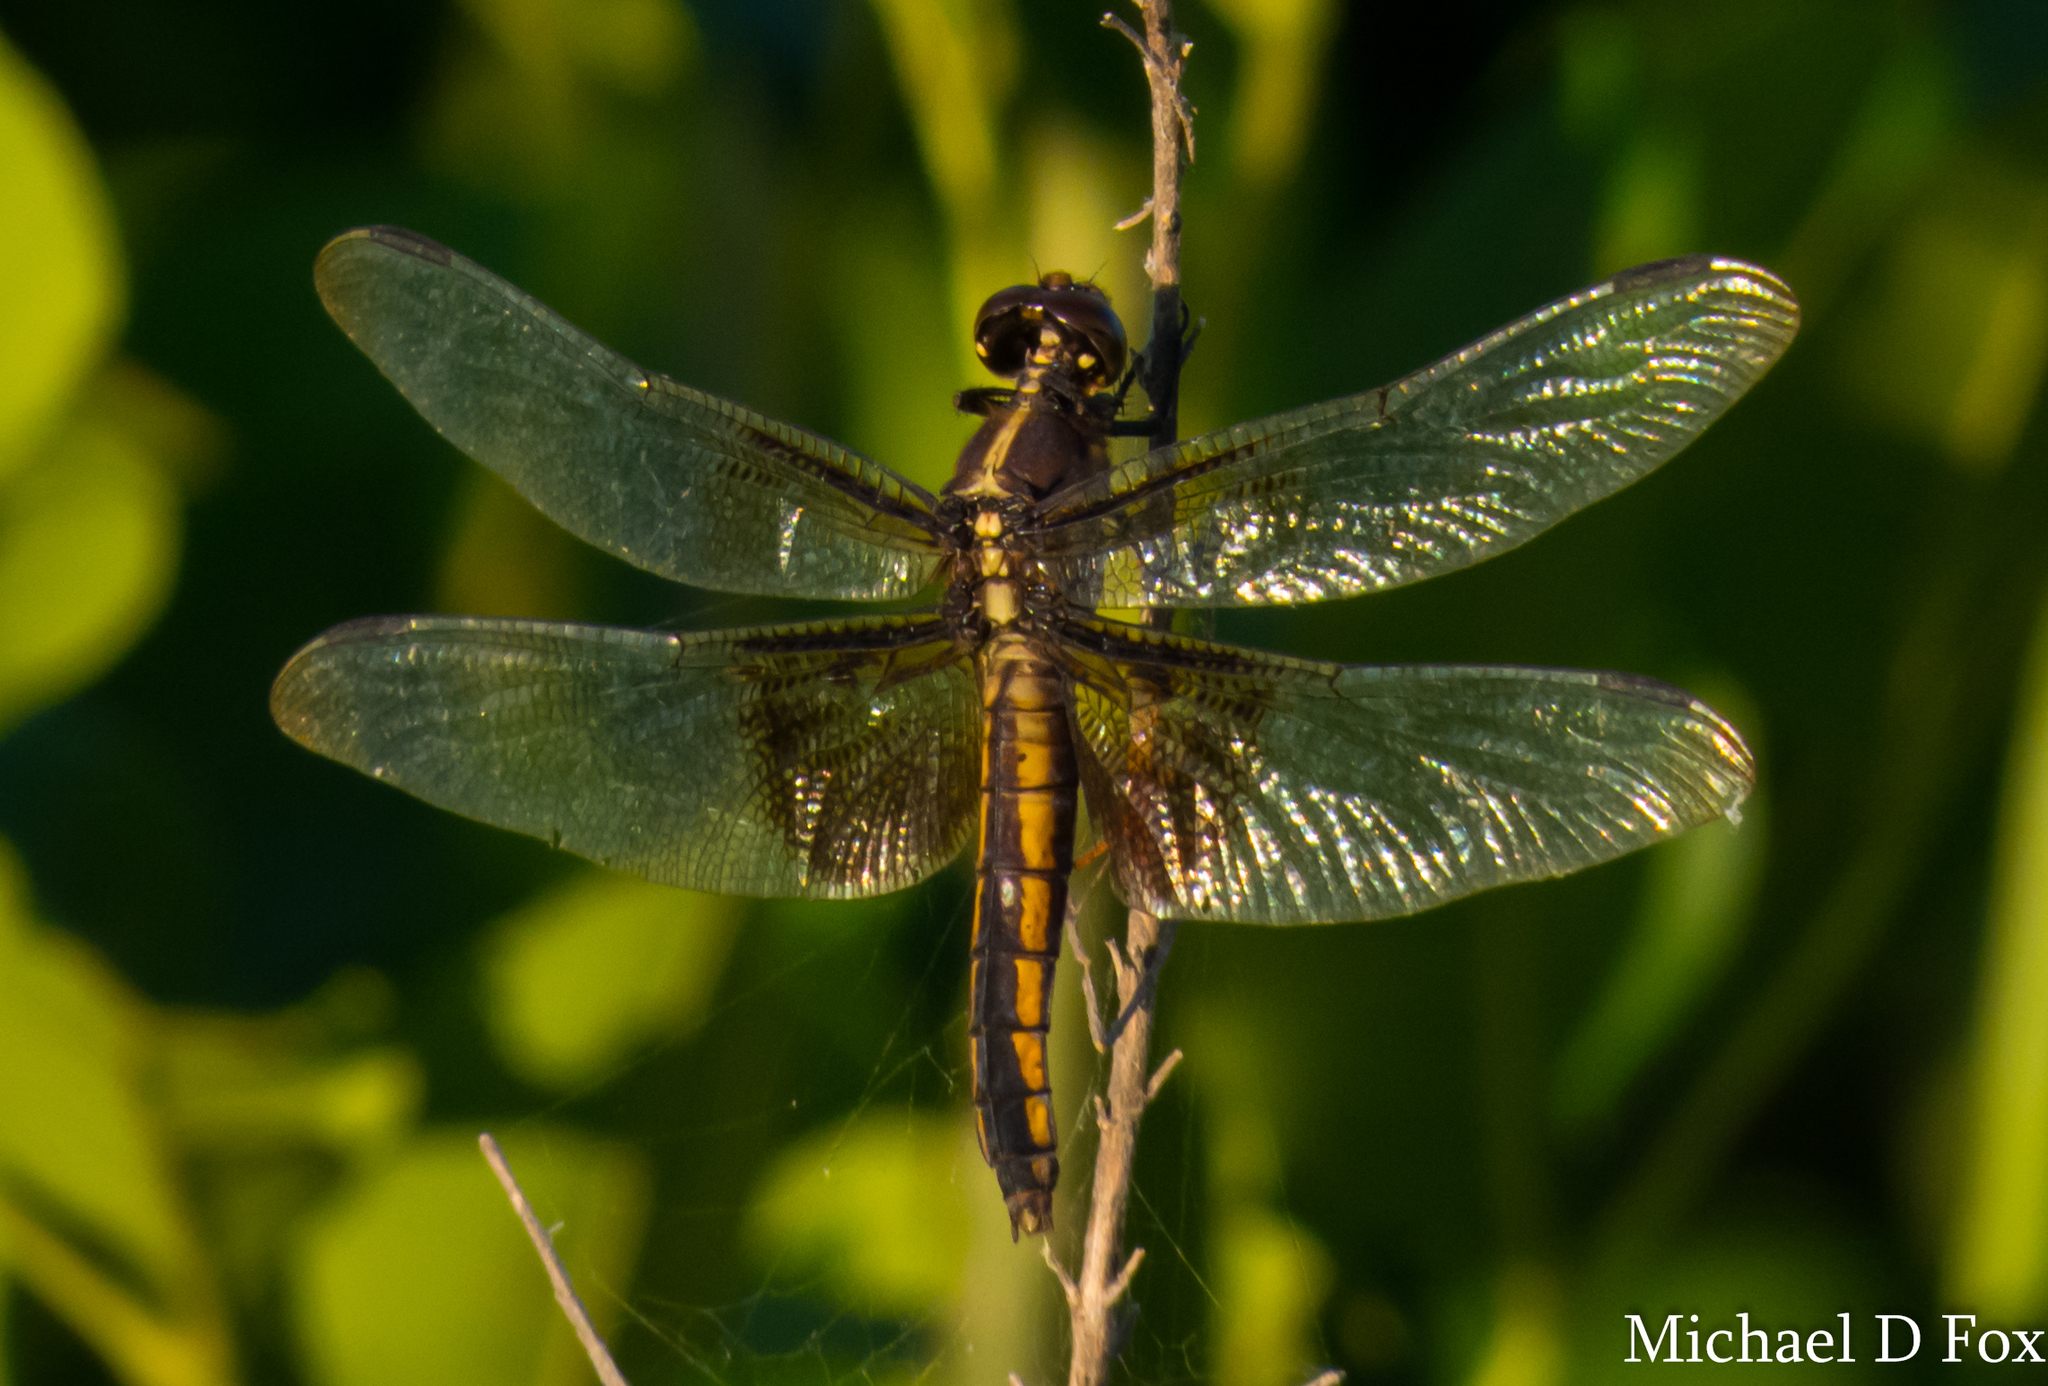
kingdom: Animalia
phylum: Arthropoda
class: Insecta
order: Odonata
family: Libellulidae
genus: Libellula
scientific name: Libellula luctuosa
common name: Widow skimmer
